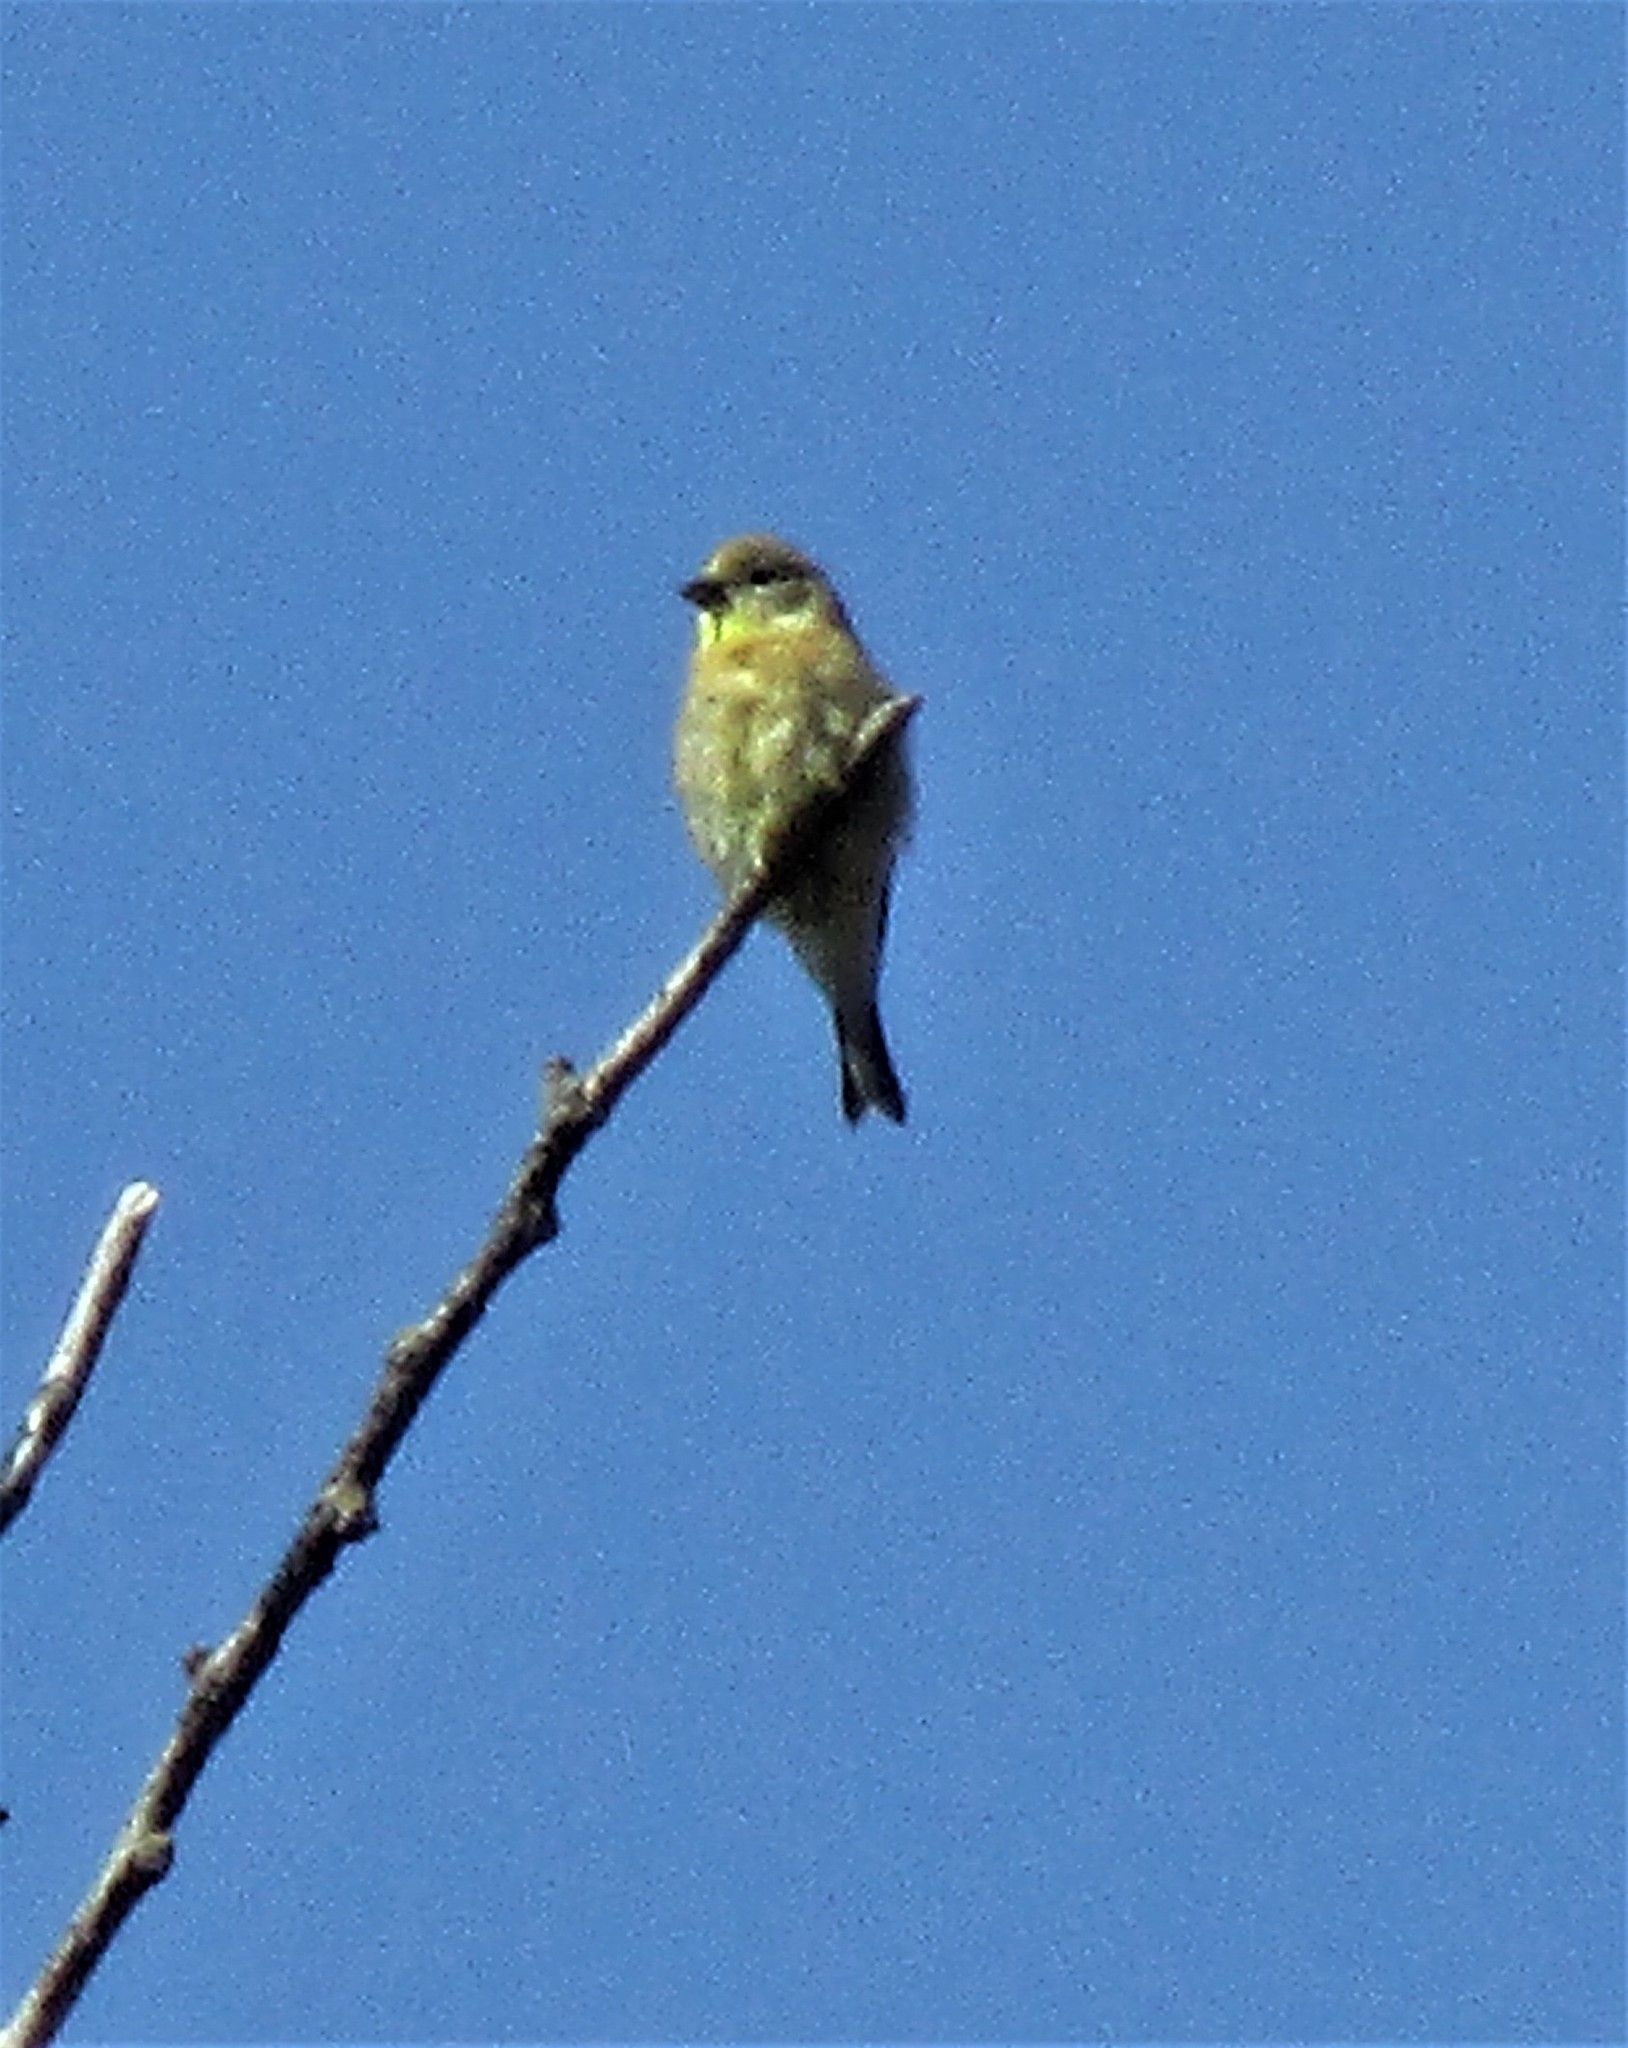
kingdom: Animalia
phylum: Chordata
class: Aves
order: Passeriformes
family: Fringillidae
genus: Spinus
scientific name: Spinus tristis
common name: American goldfinch
